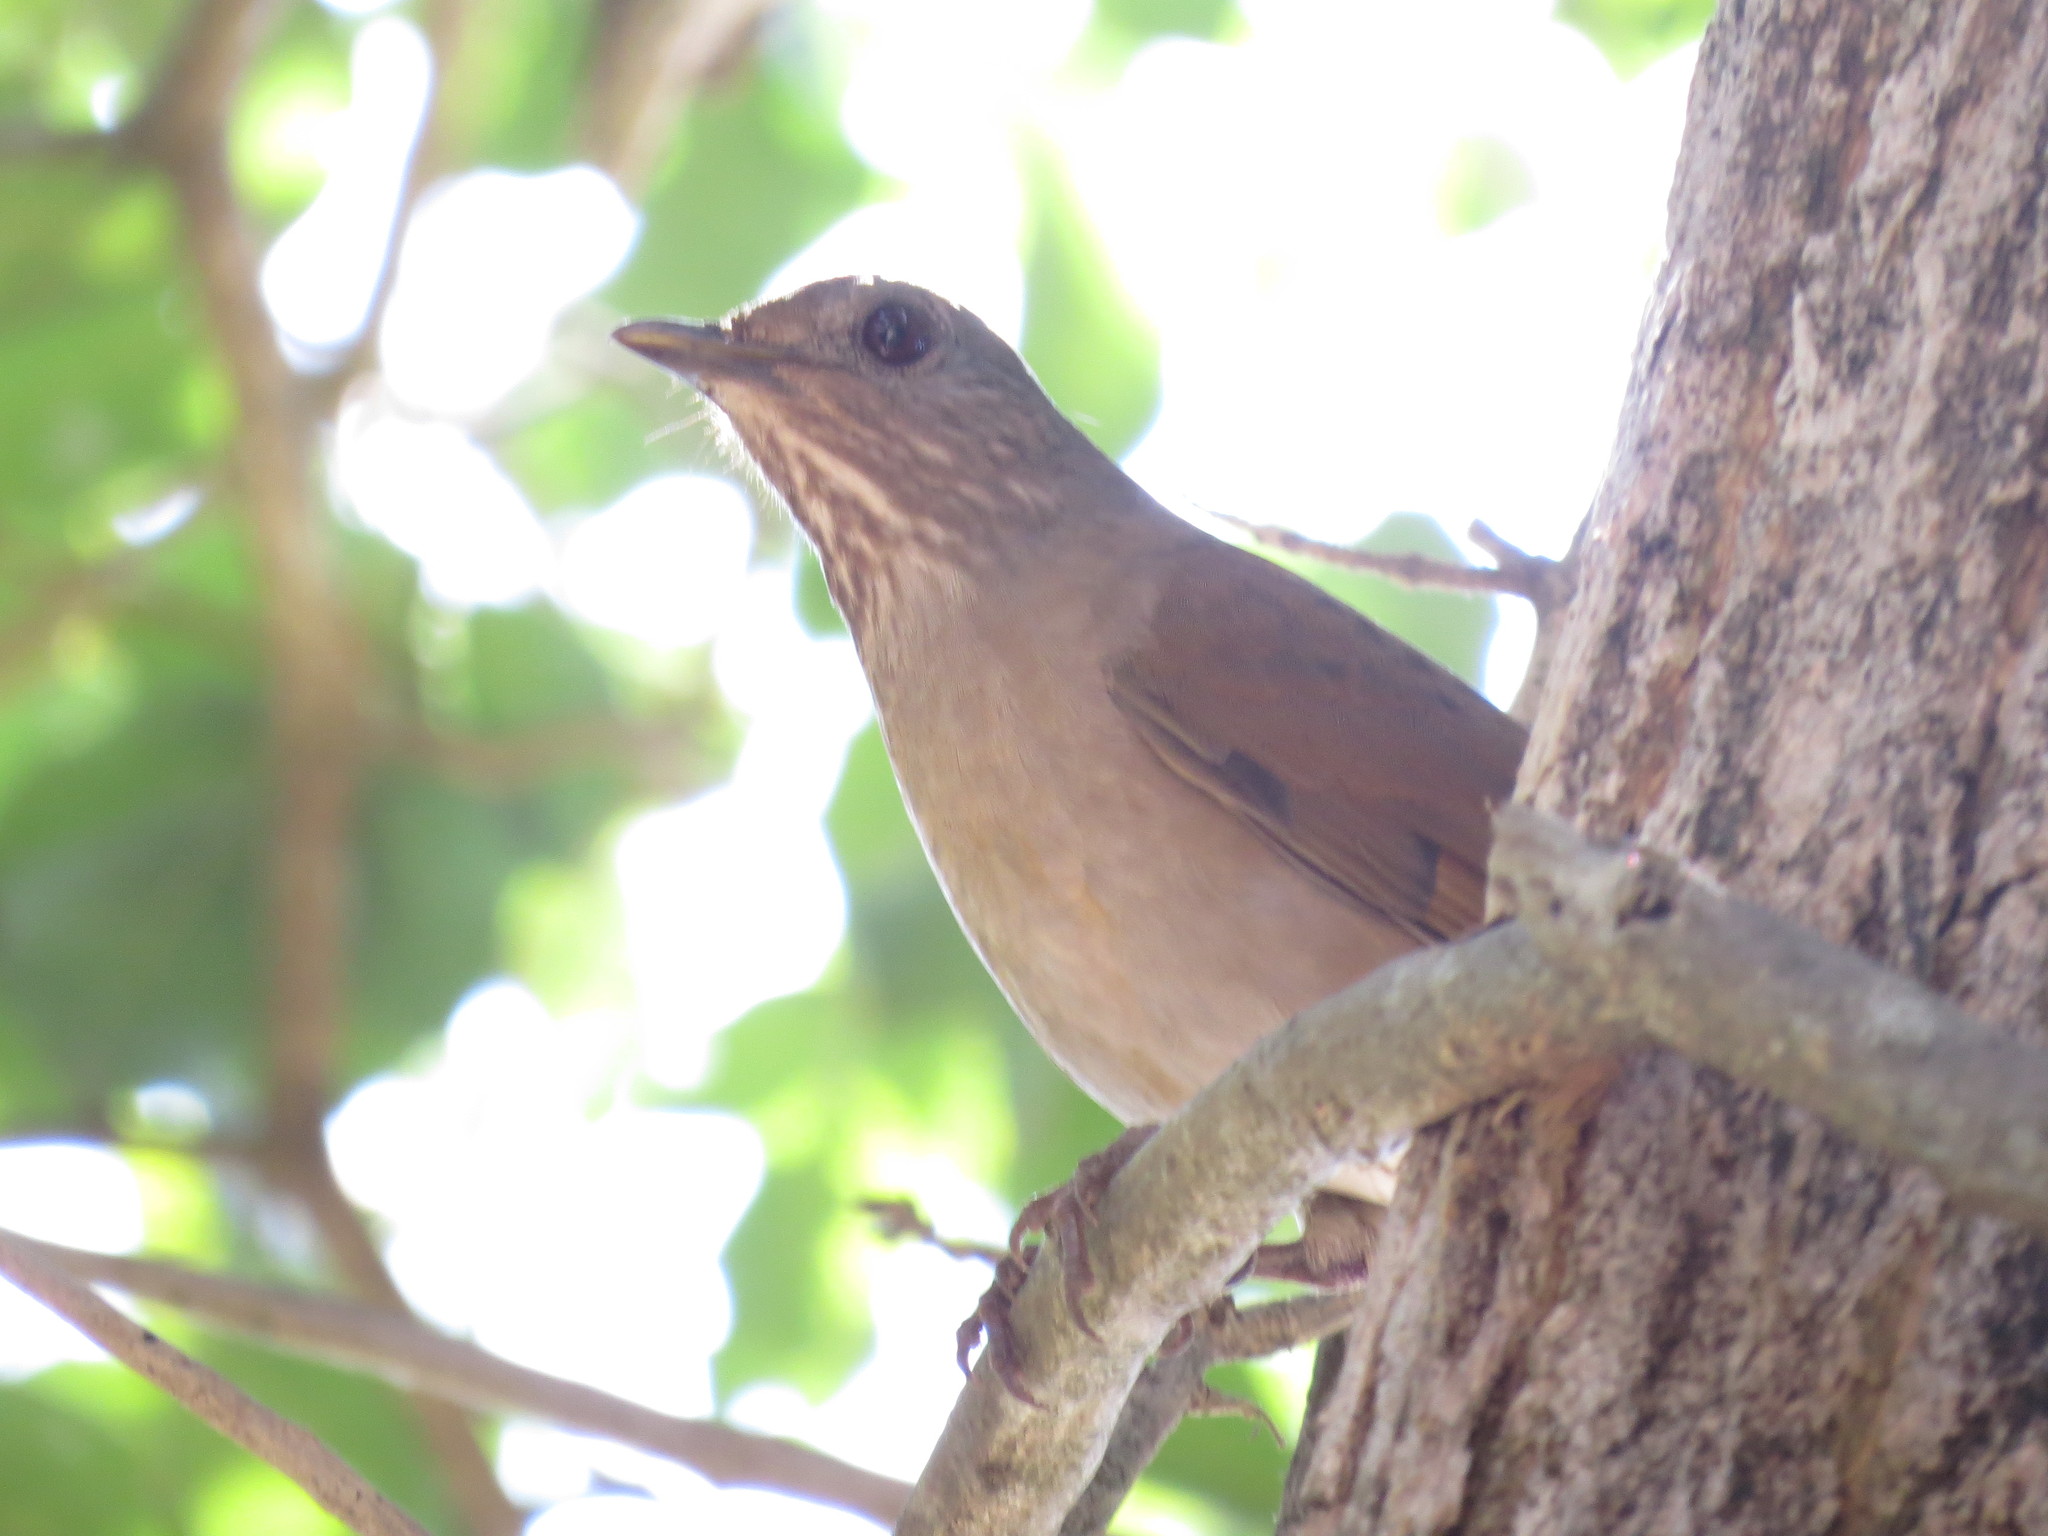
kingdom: Animalia
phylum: Chordata
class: Aves
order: Passeriformes
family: Turdidae
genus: Turdus
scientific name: Turdus leucomelas
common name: Pale-breasted thrush
